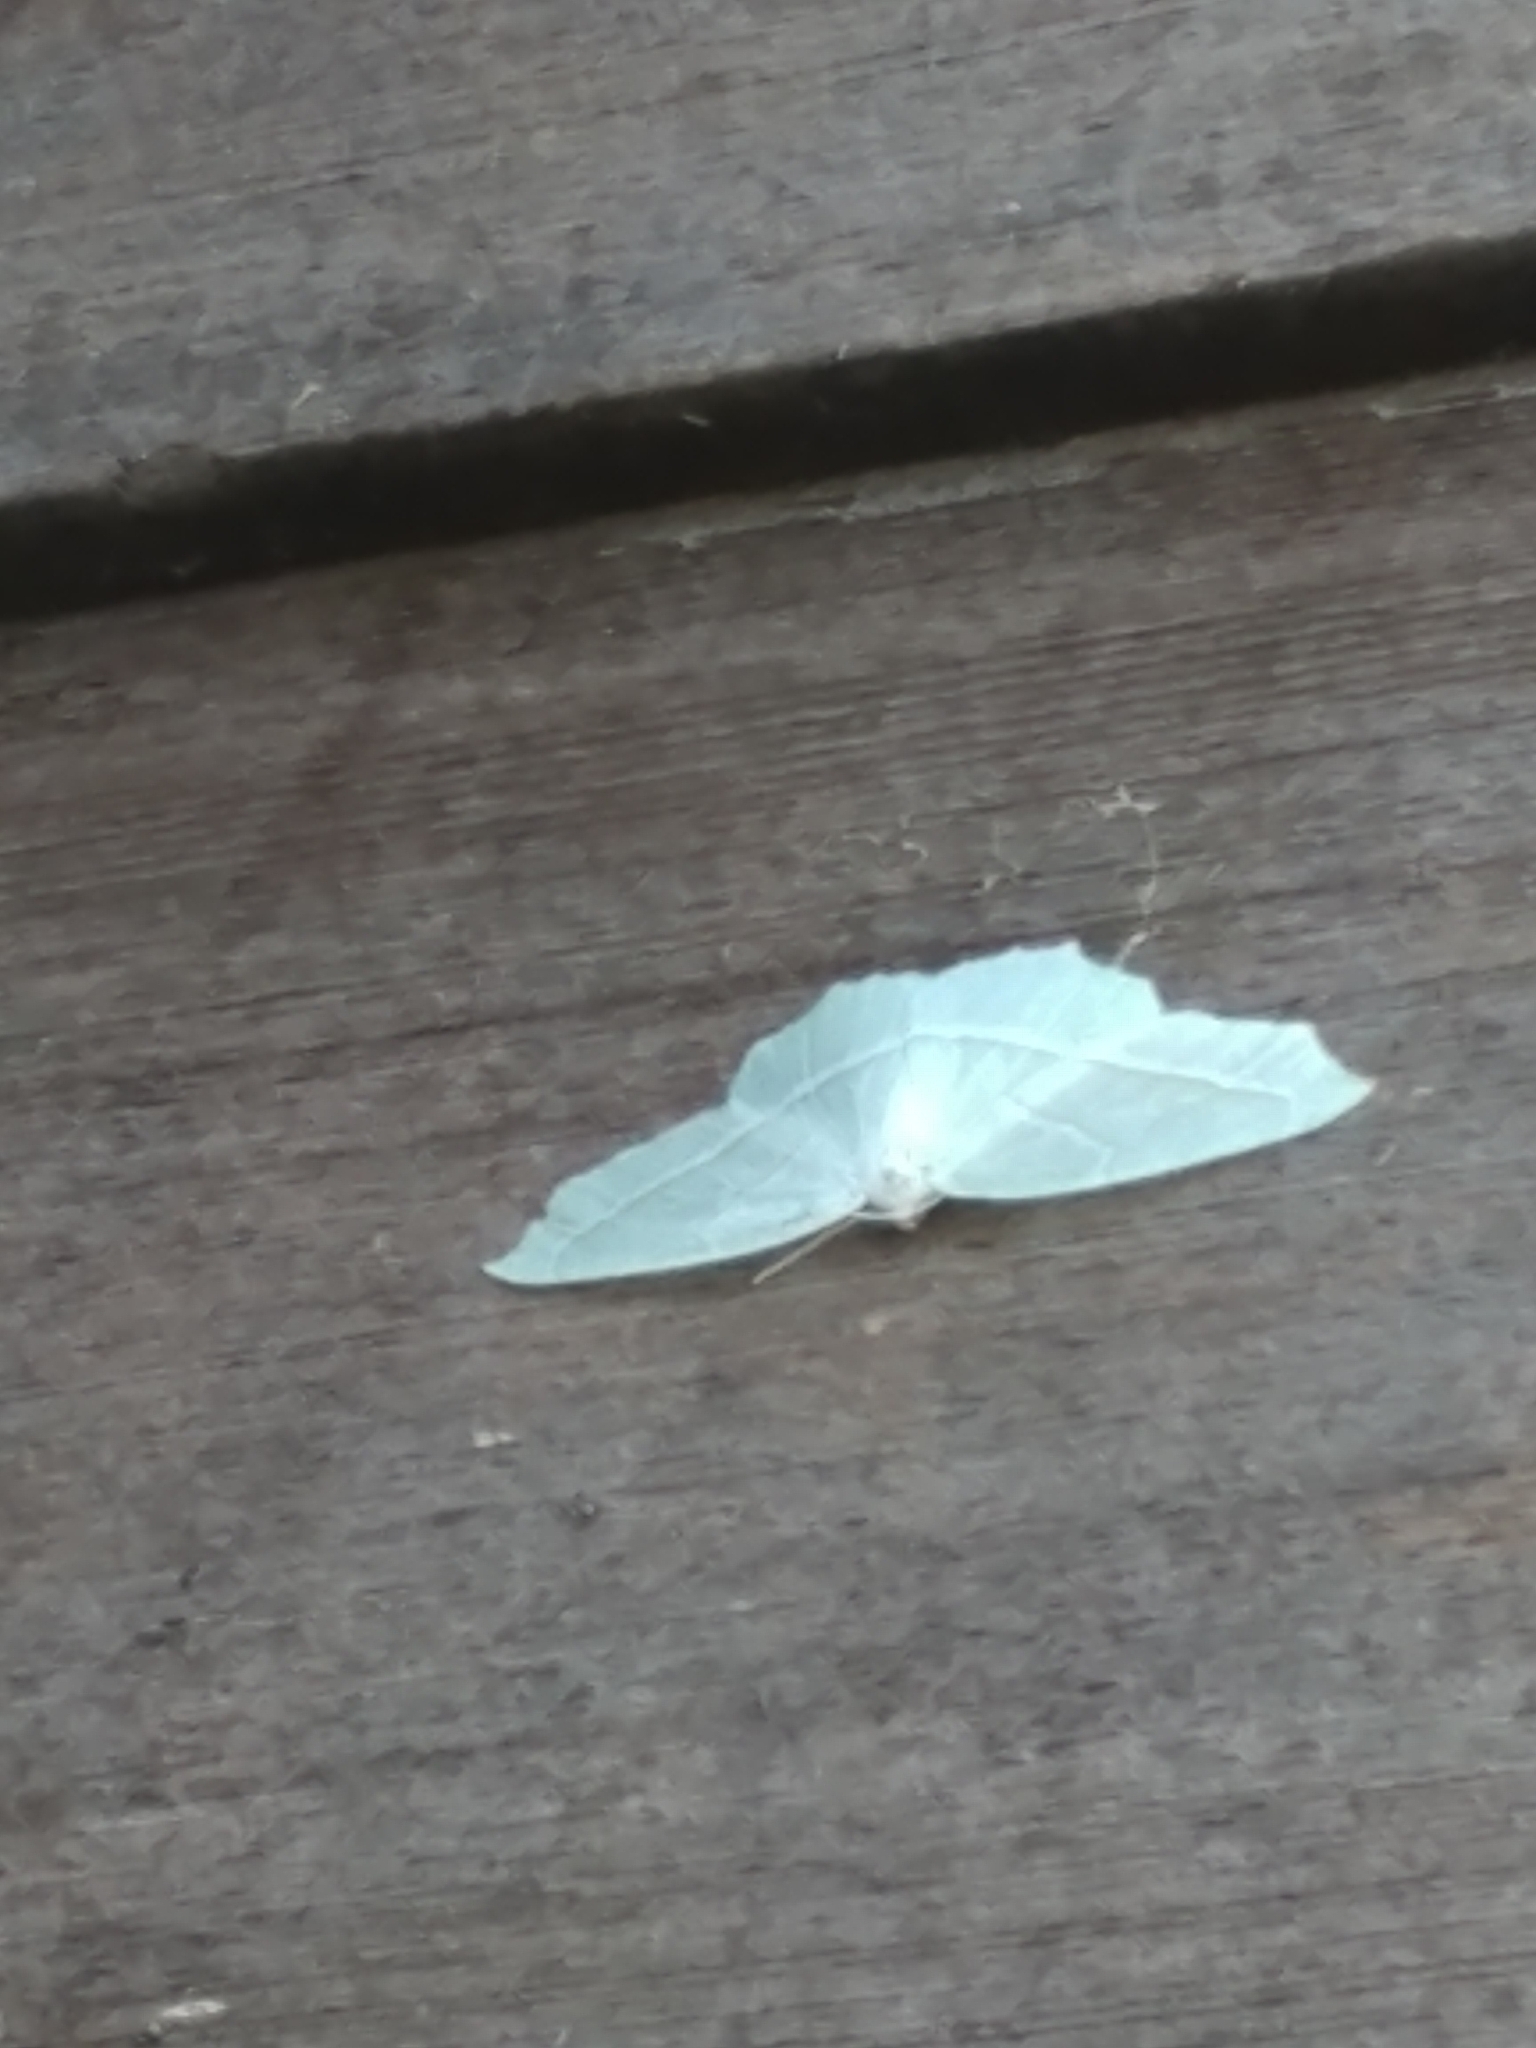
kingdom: Animalia
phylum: Arthropoda
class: Insecta
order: Lepidoptera
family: Geometridae
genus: Campaea
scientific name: Campaea perlata
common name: Fringed looper
